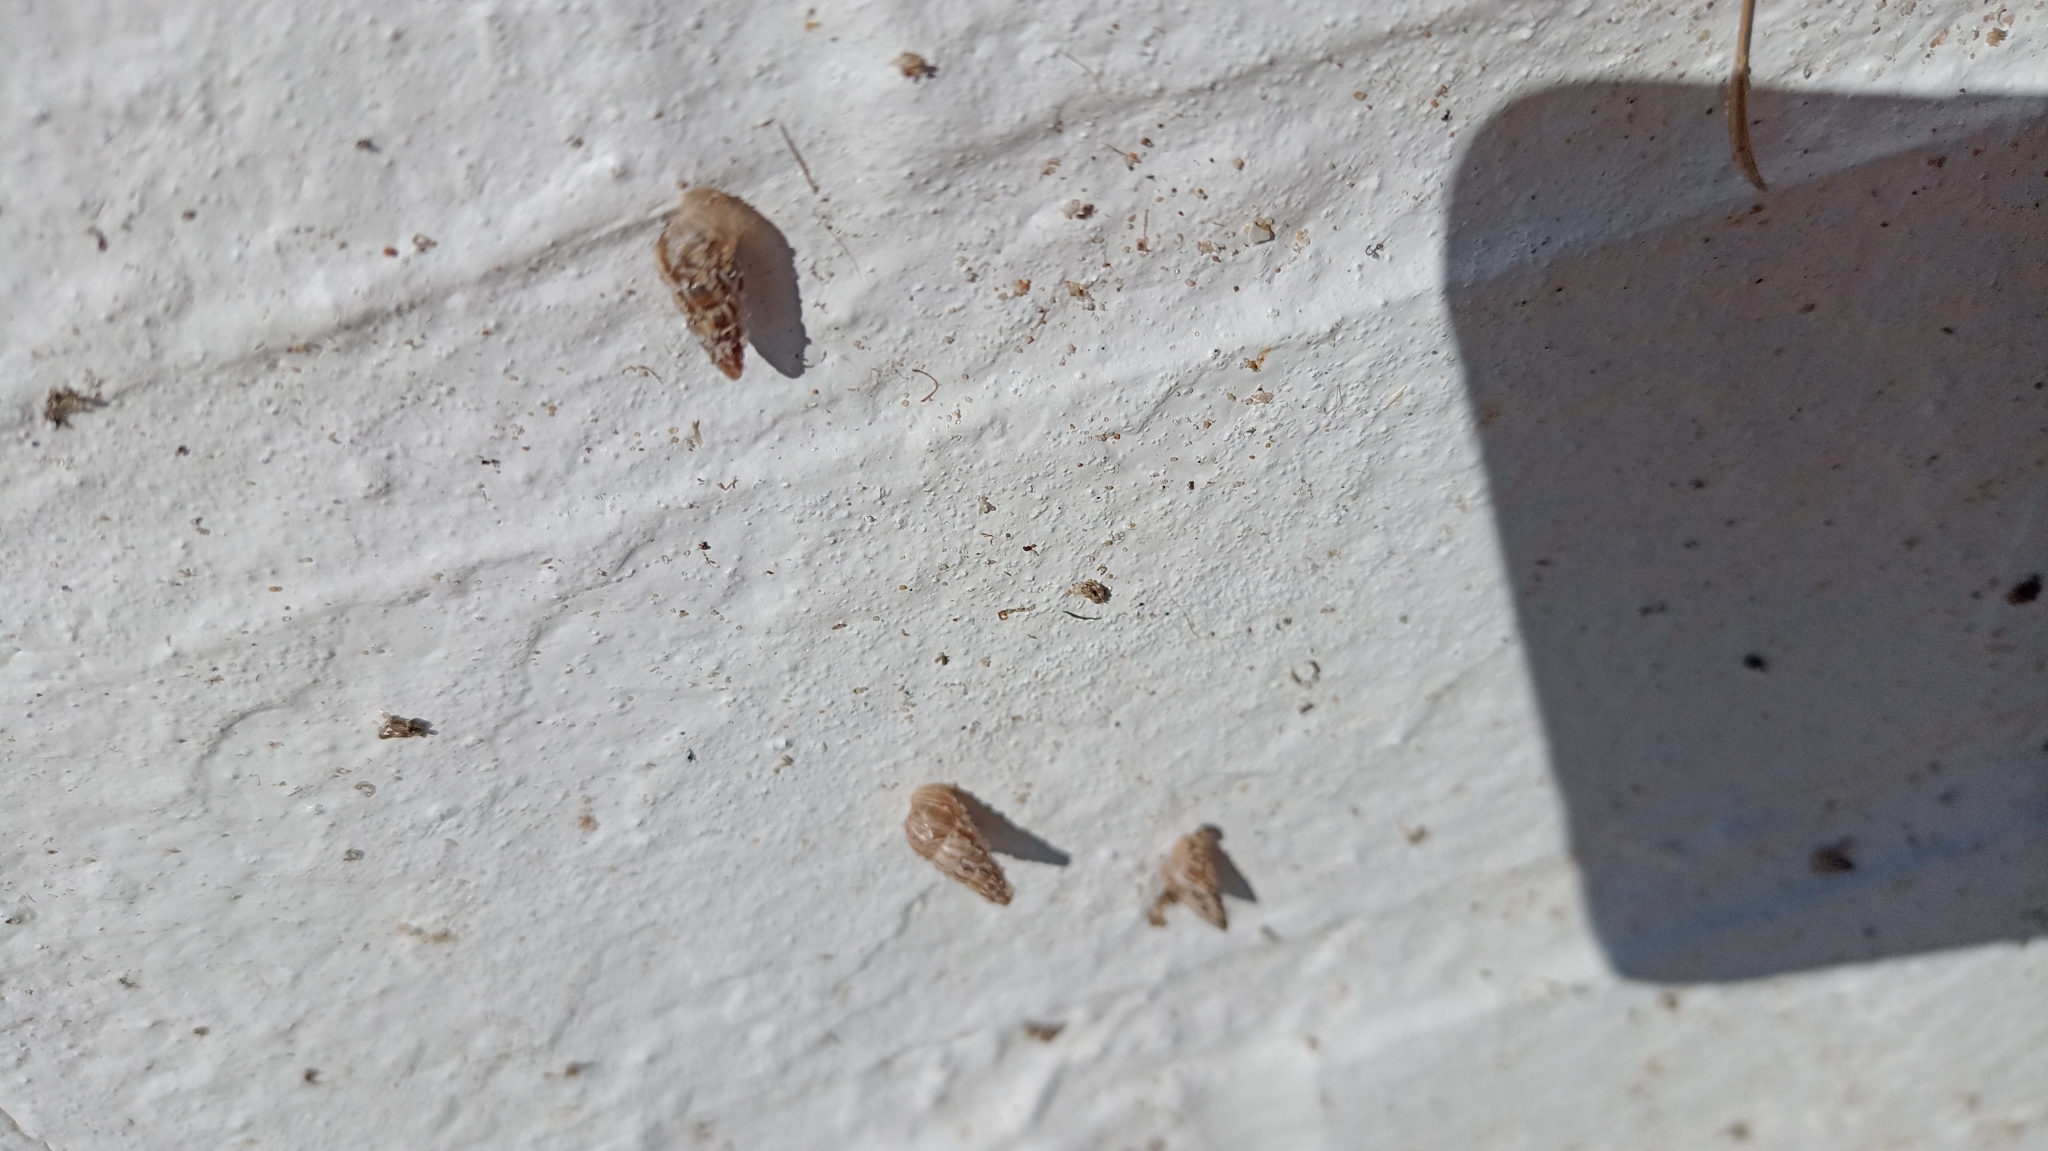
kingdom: Animalia
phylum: Mollusca
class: Gastropoda
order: Stylommatophora
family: Geomitridae
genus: Cochlicella
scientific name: Cochlicella acuta
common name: Pointed snail
